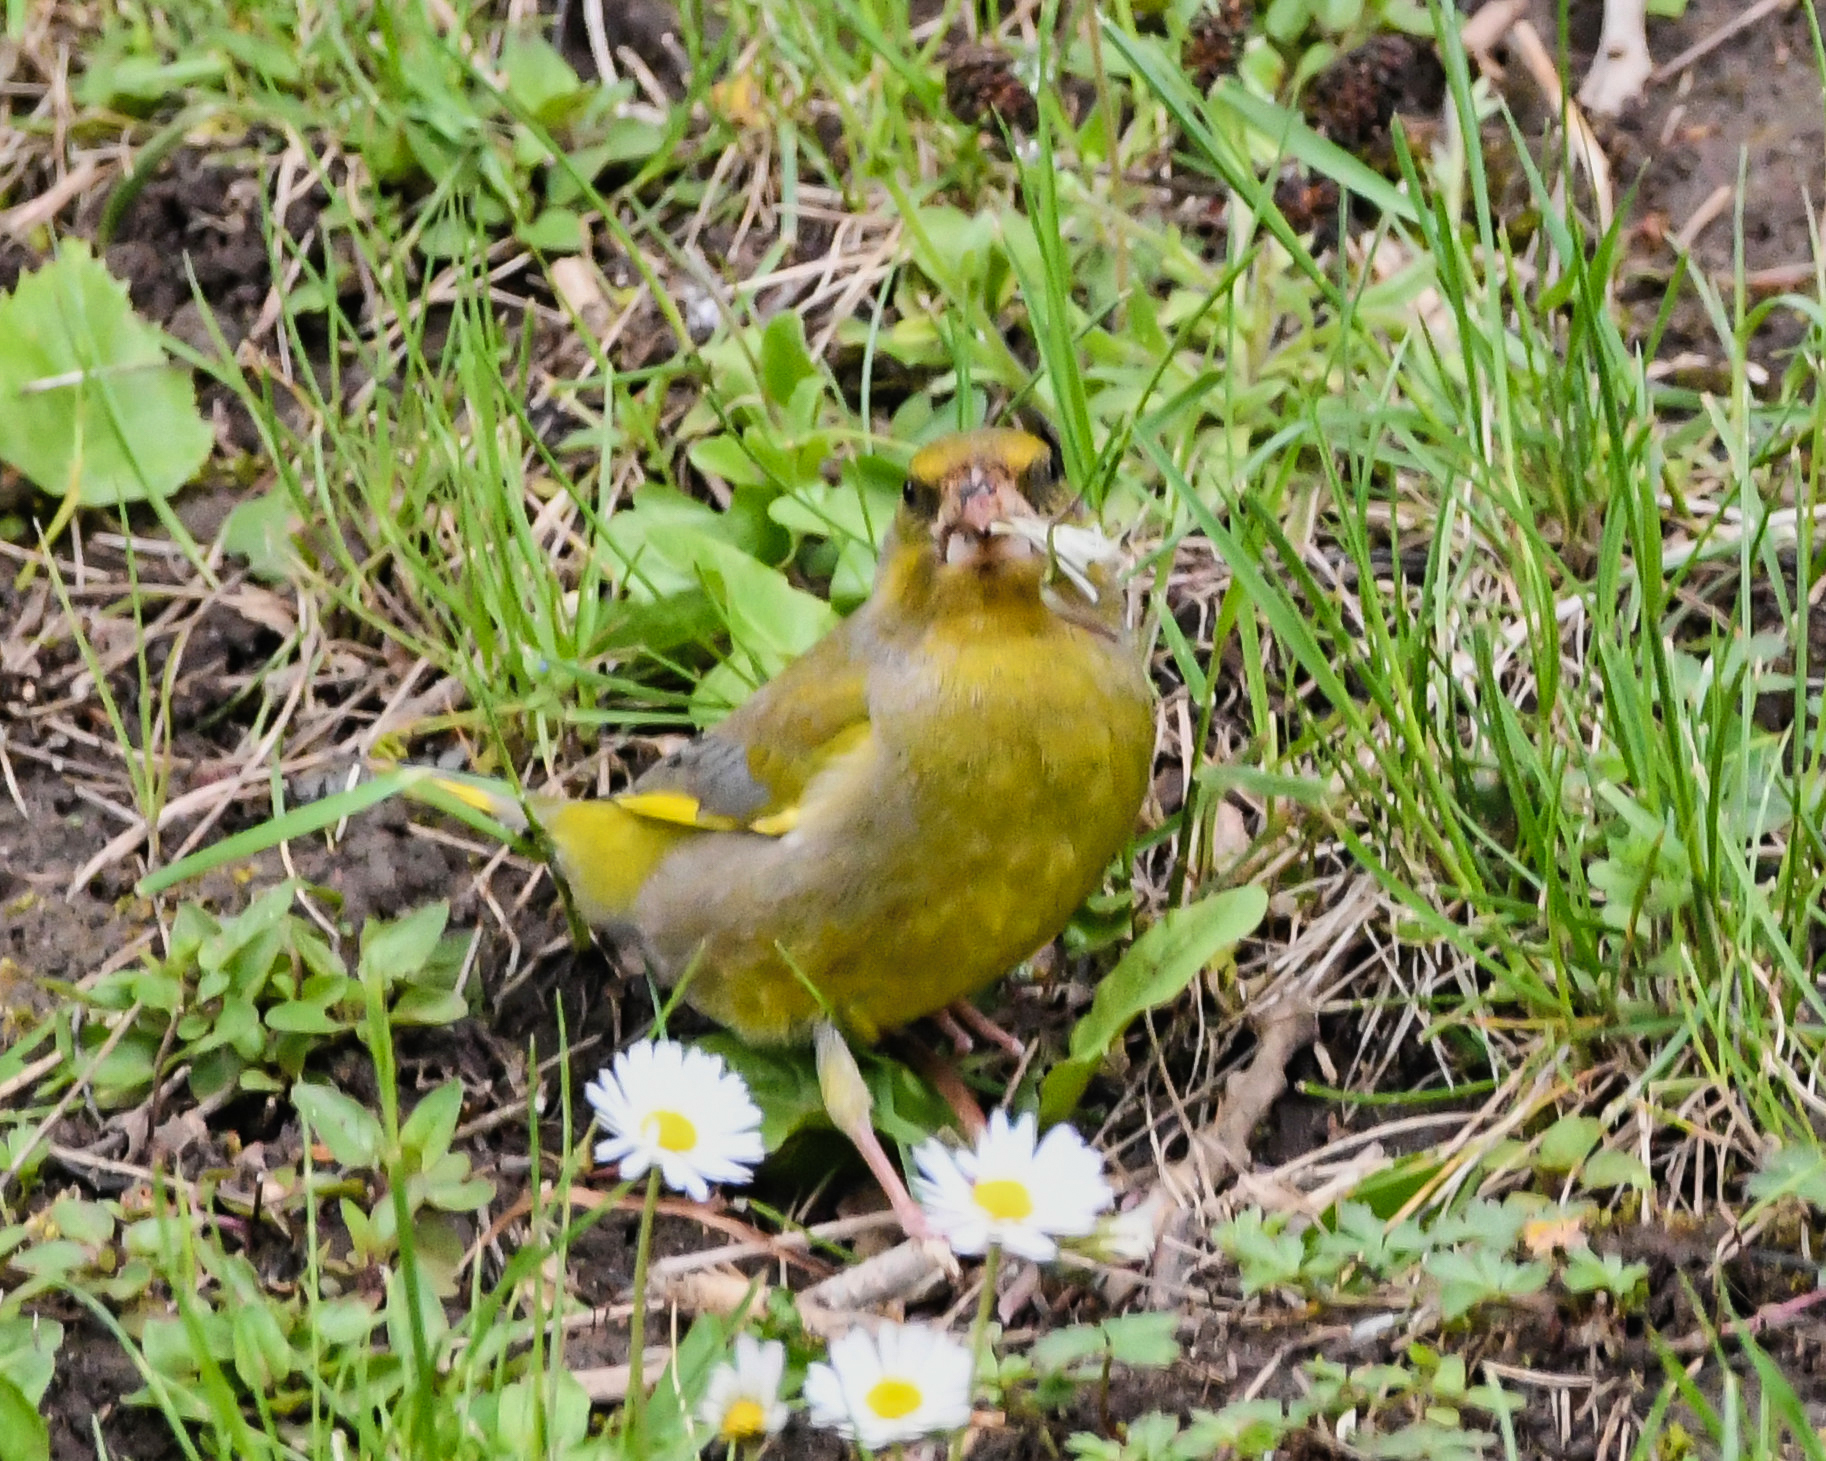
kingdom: Plantae
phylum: Tracheophyta
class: Liliopsida
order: Poales
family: Poaceae
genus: Chloris
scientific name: Chloris chloris
